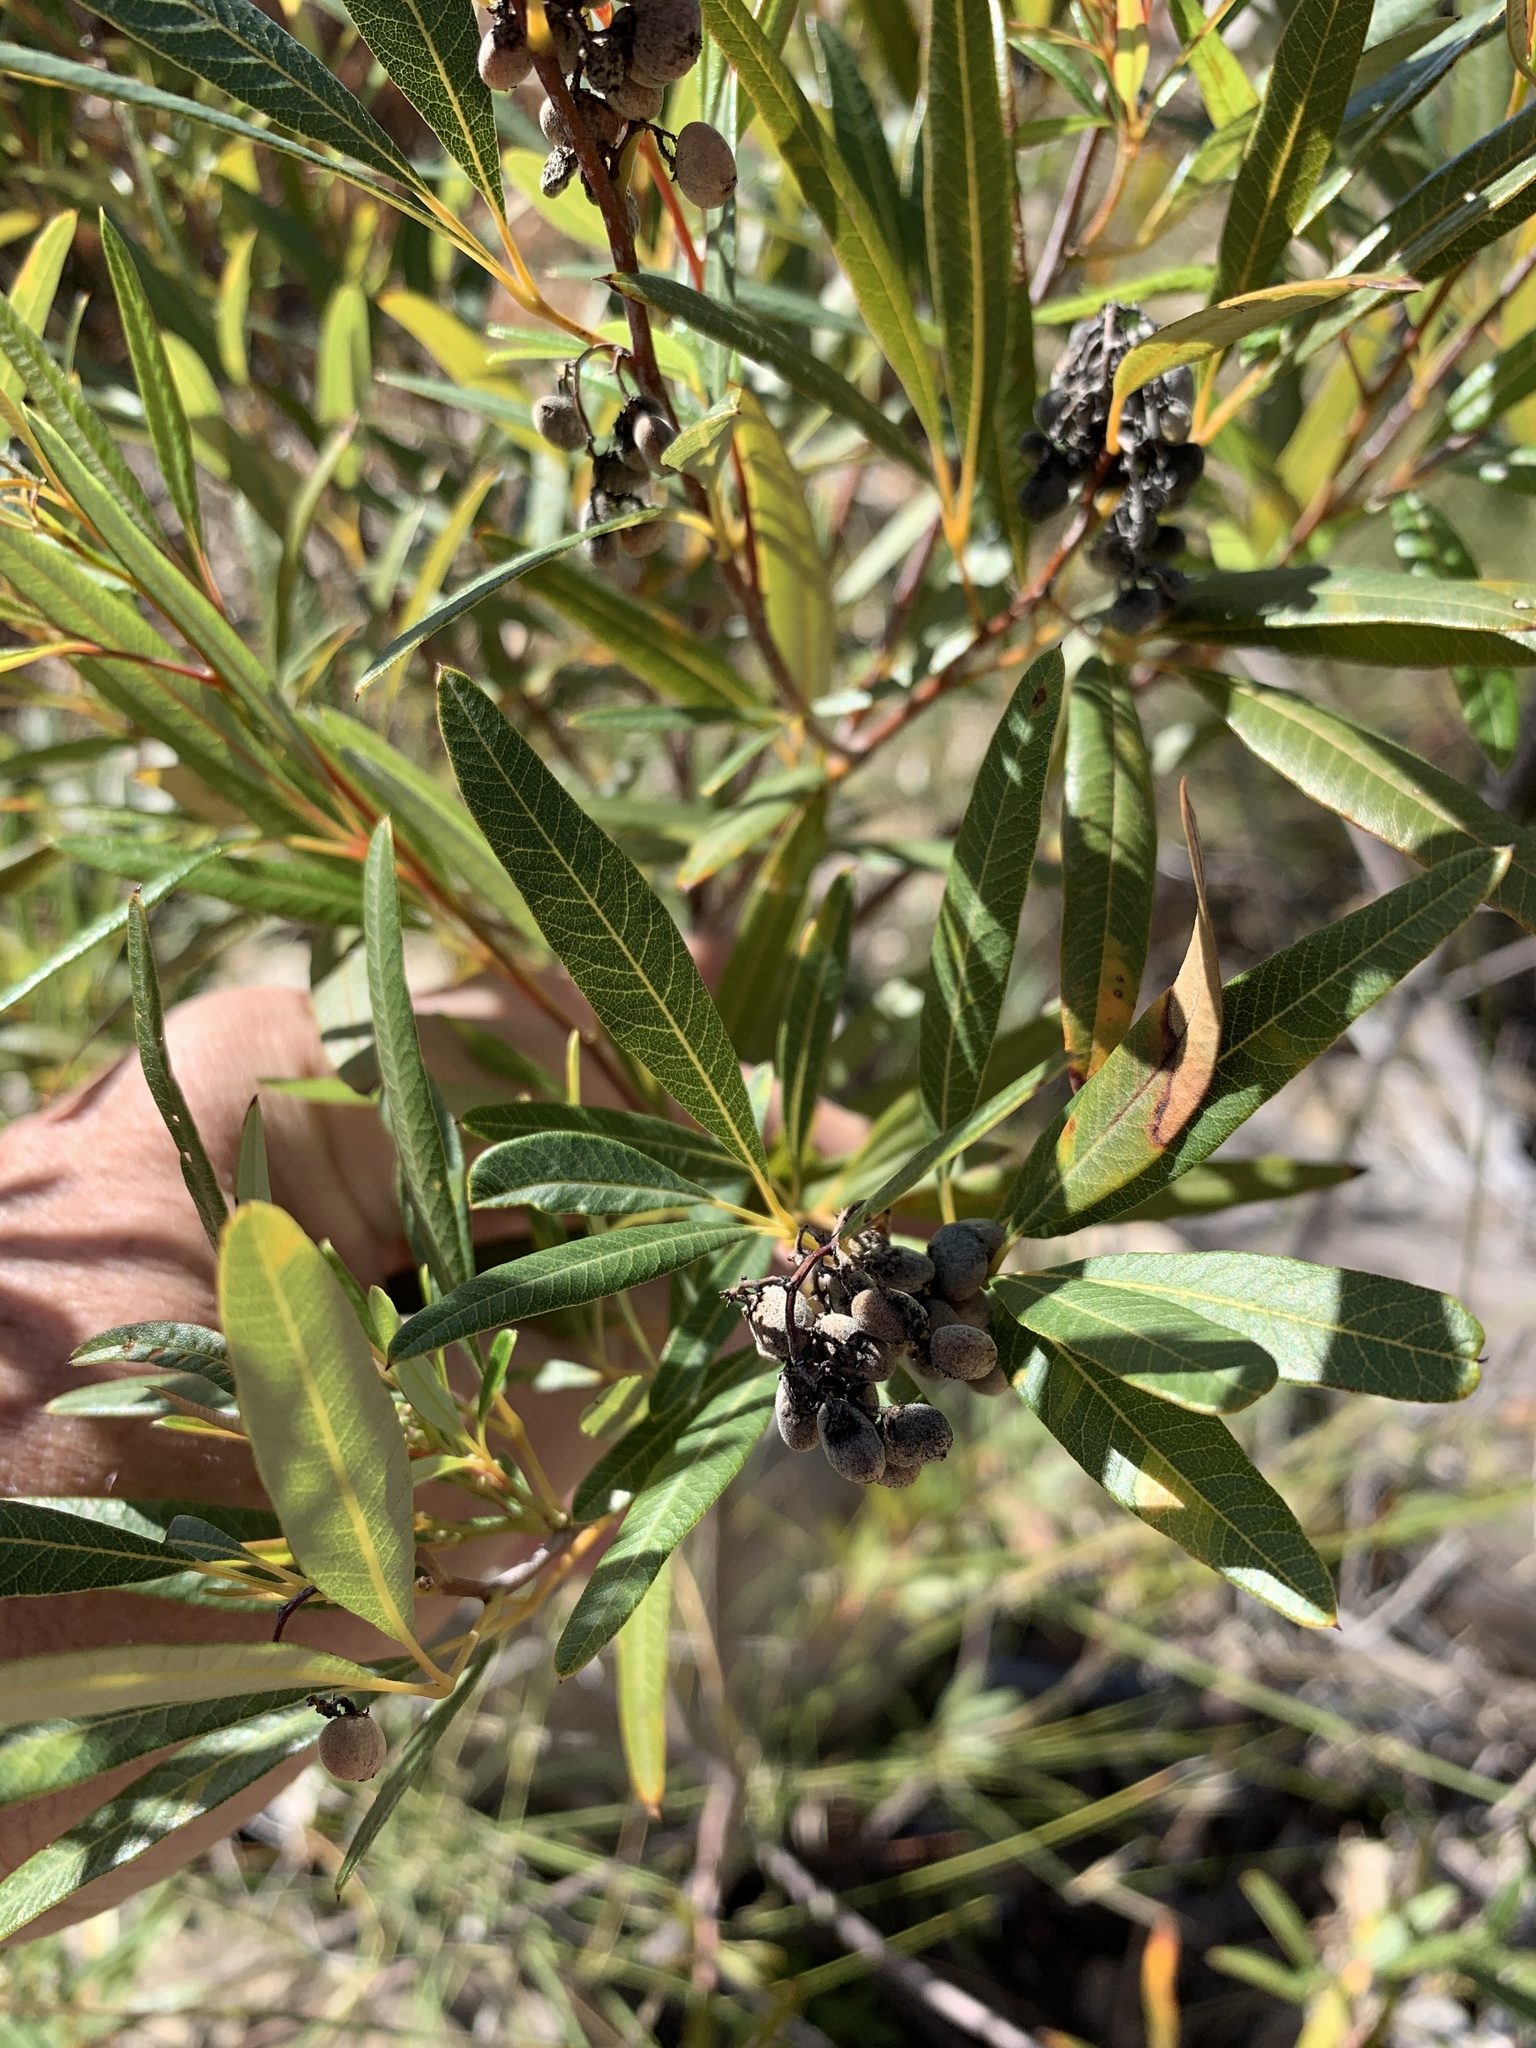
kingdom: Plantae
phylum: Tracheophyta
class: Magnoliopsida
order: Sapindales
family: Anacardiaceae
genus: Searsia
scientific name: Searsia angustifolia
